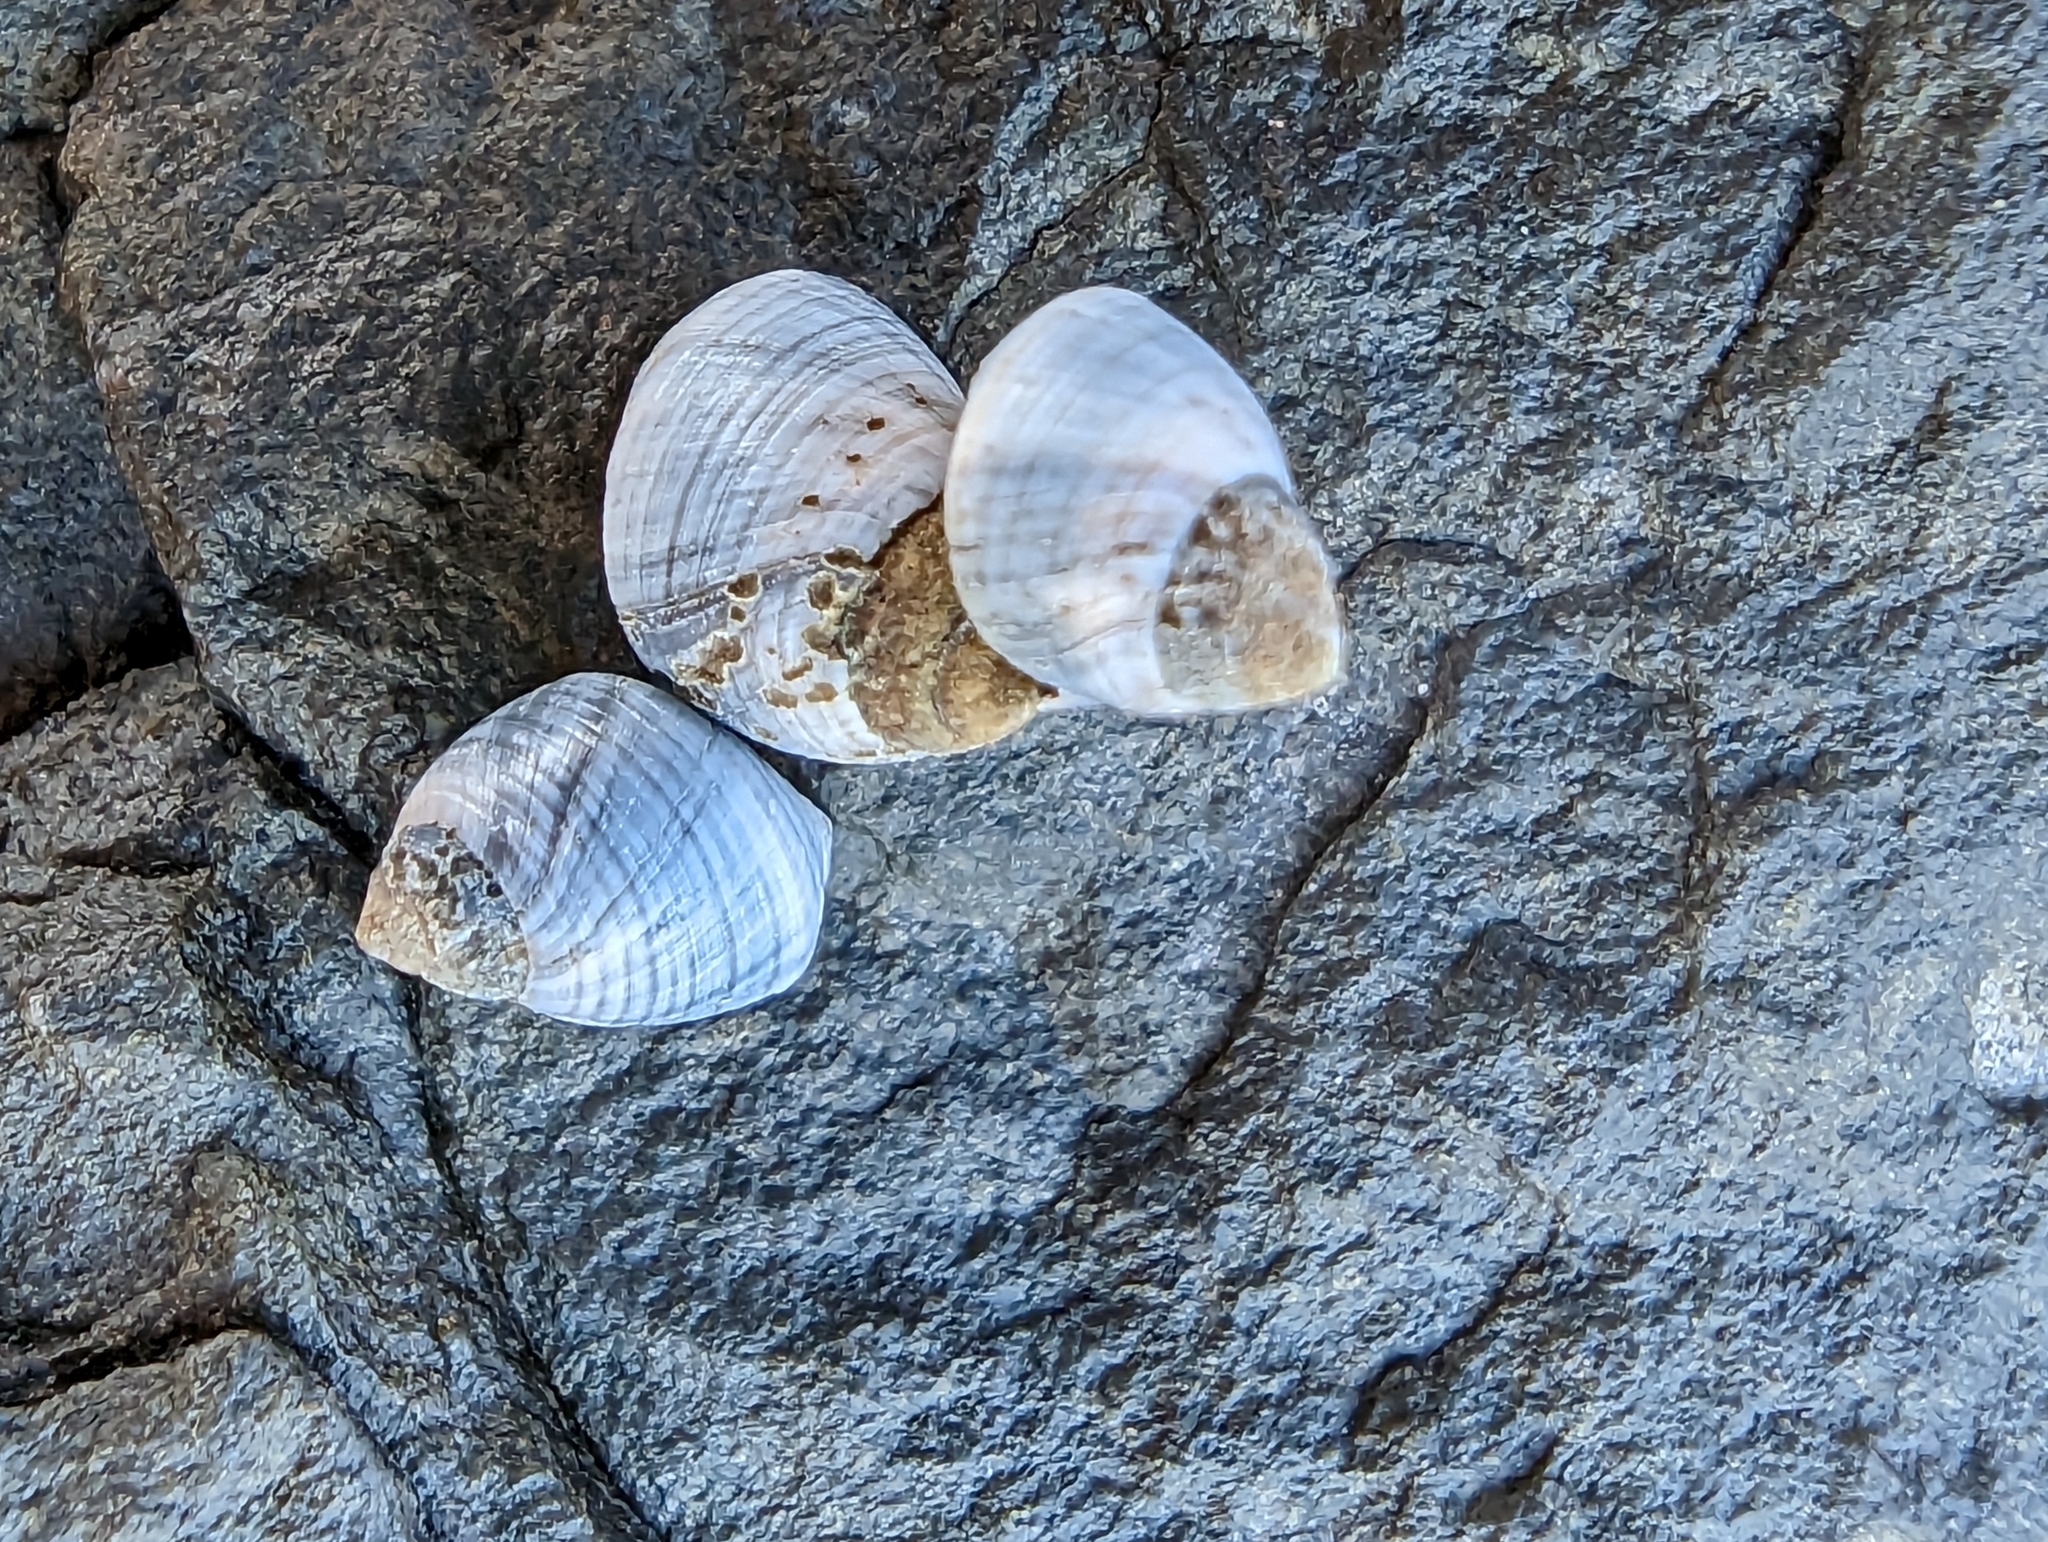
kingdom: Animalia
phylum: Mollusca
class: Gastropoda
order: Littorinimorpha
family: Littorinidae
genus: Austrolittorina
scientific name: Austrolittorina unifasciata
